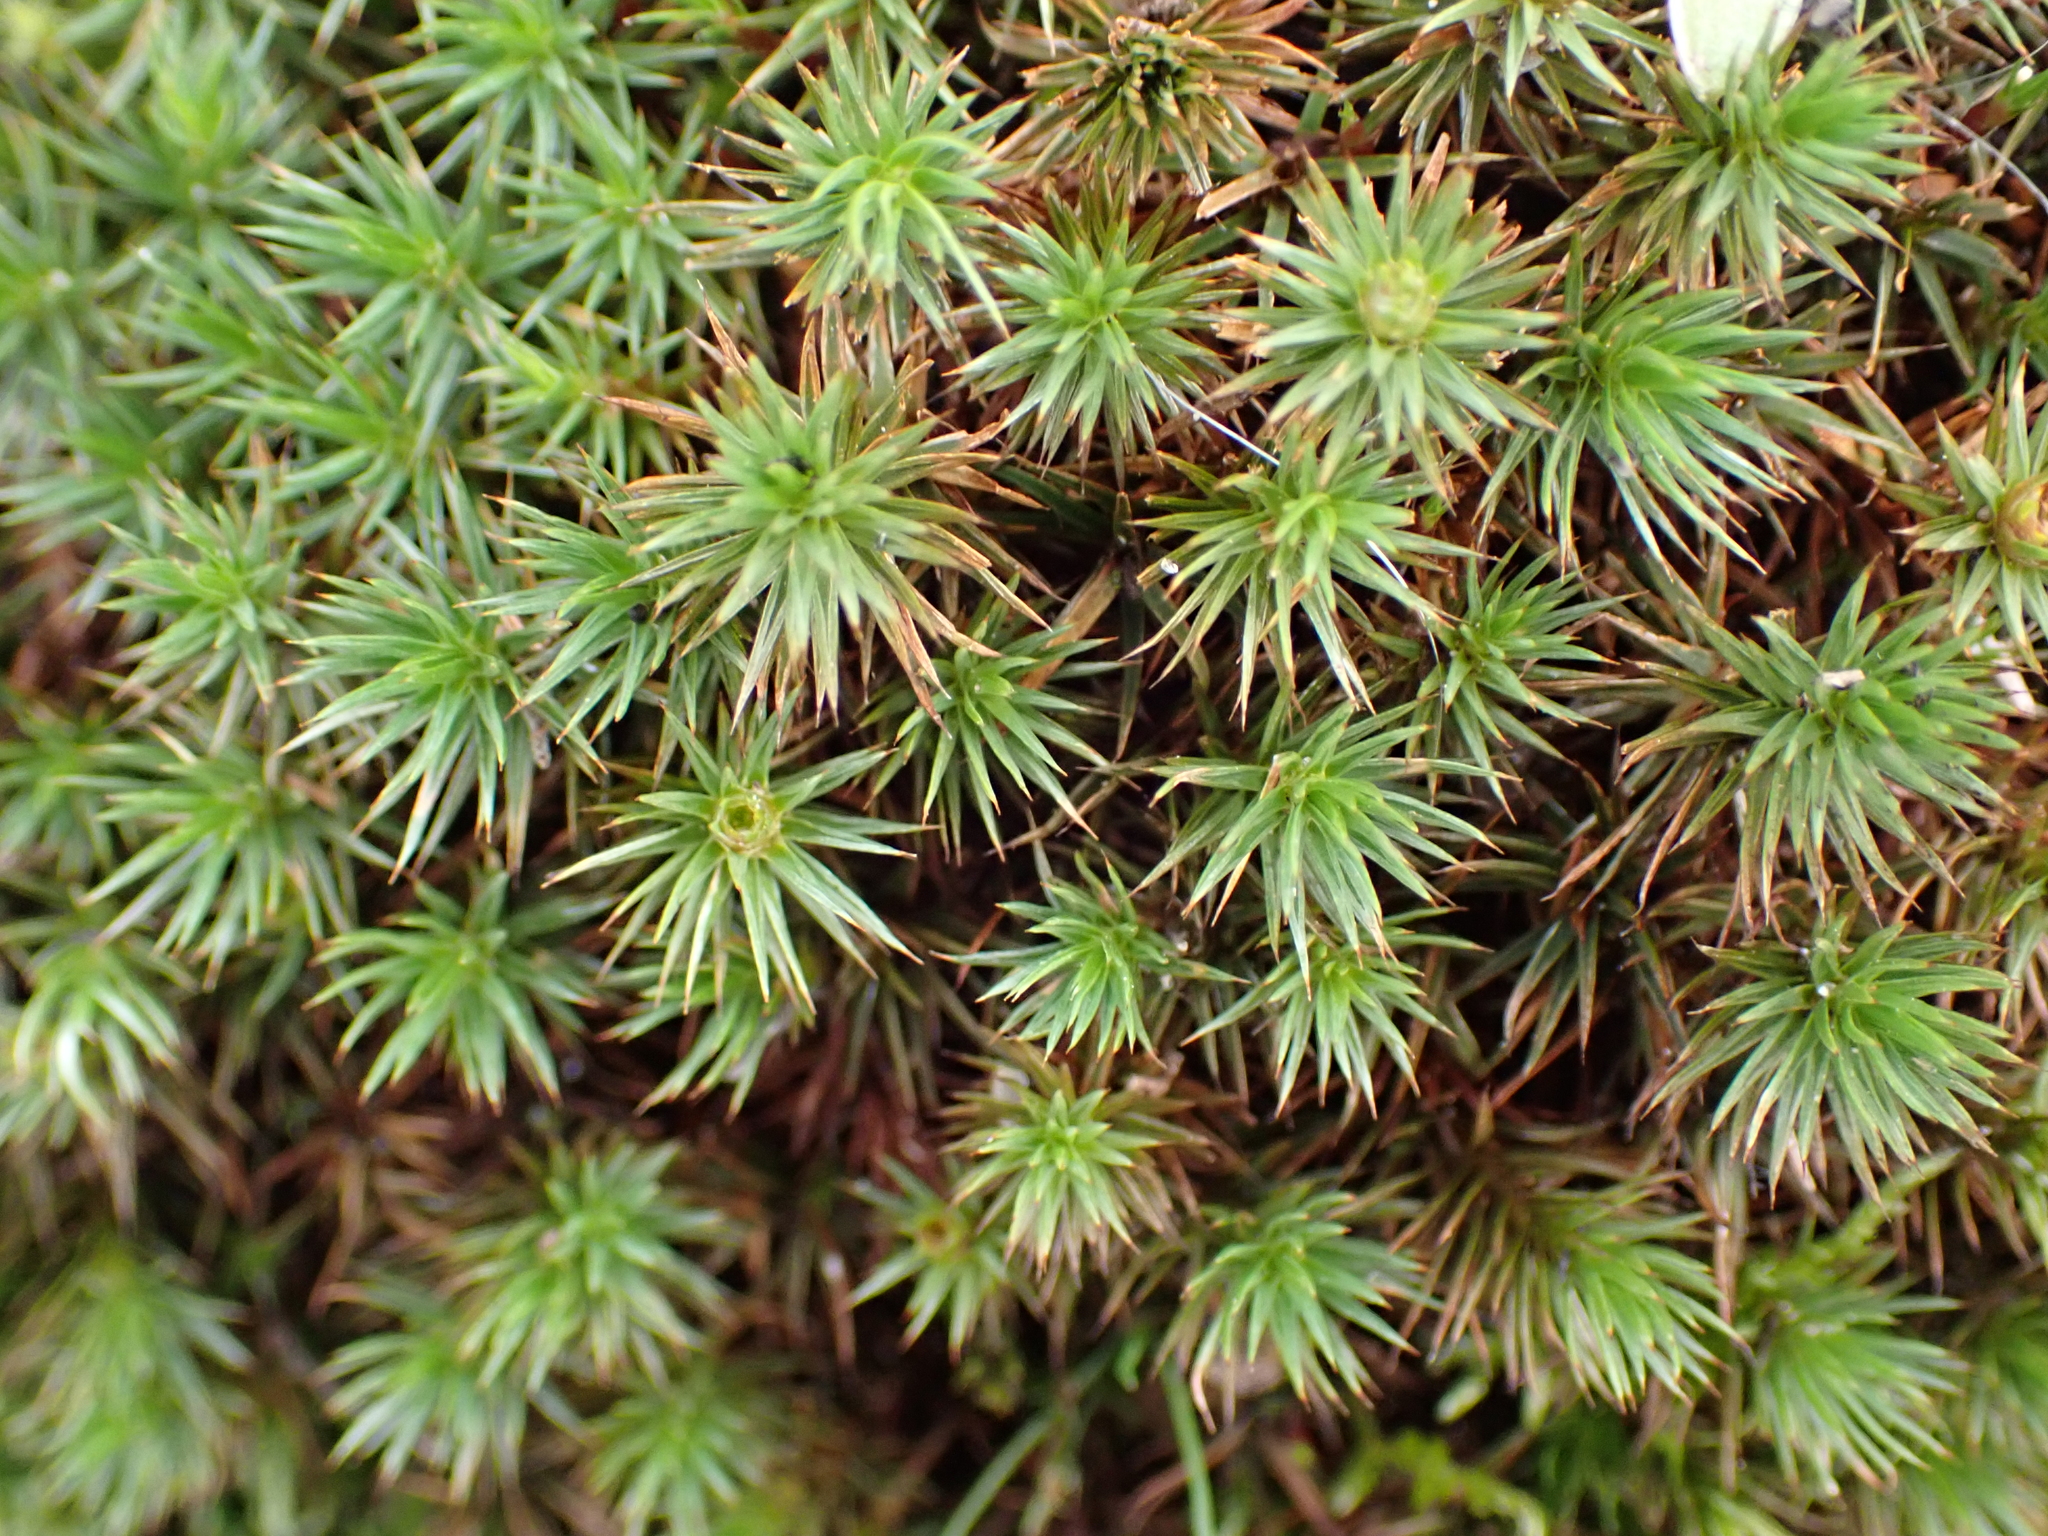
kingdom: Plantae
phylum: Bryophyta
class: Polytrichopsida
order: Polytrichales
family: Polytrichaceae
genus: Polytrichum
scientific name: Polytrichum juniperinum
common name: Juniper haircap moss
